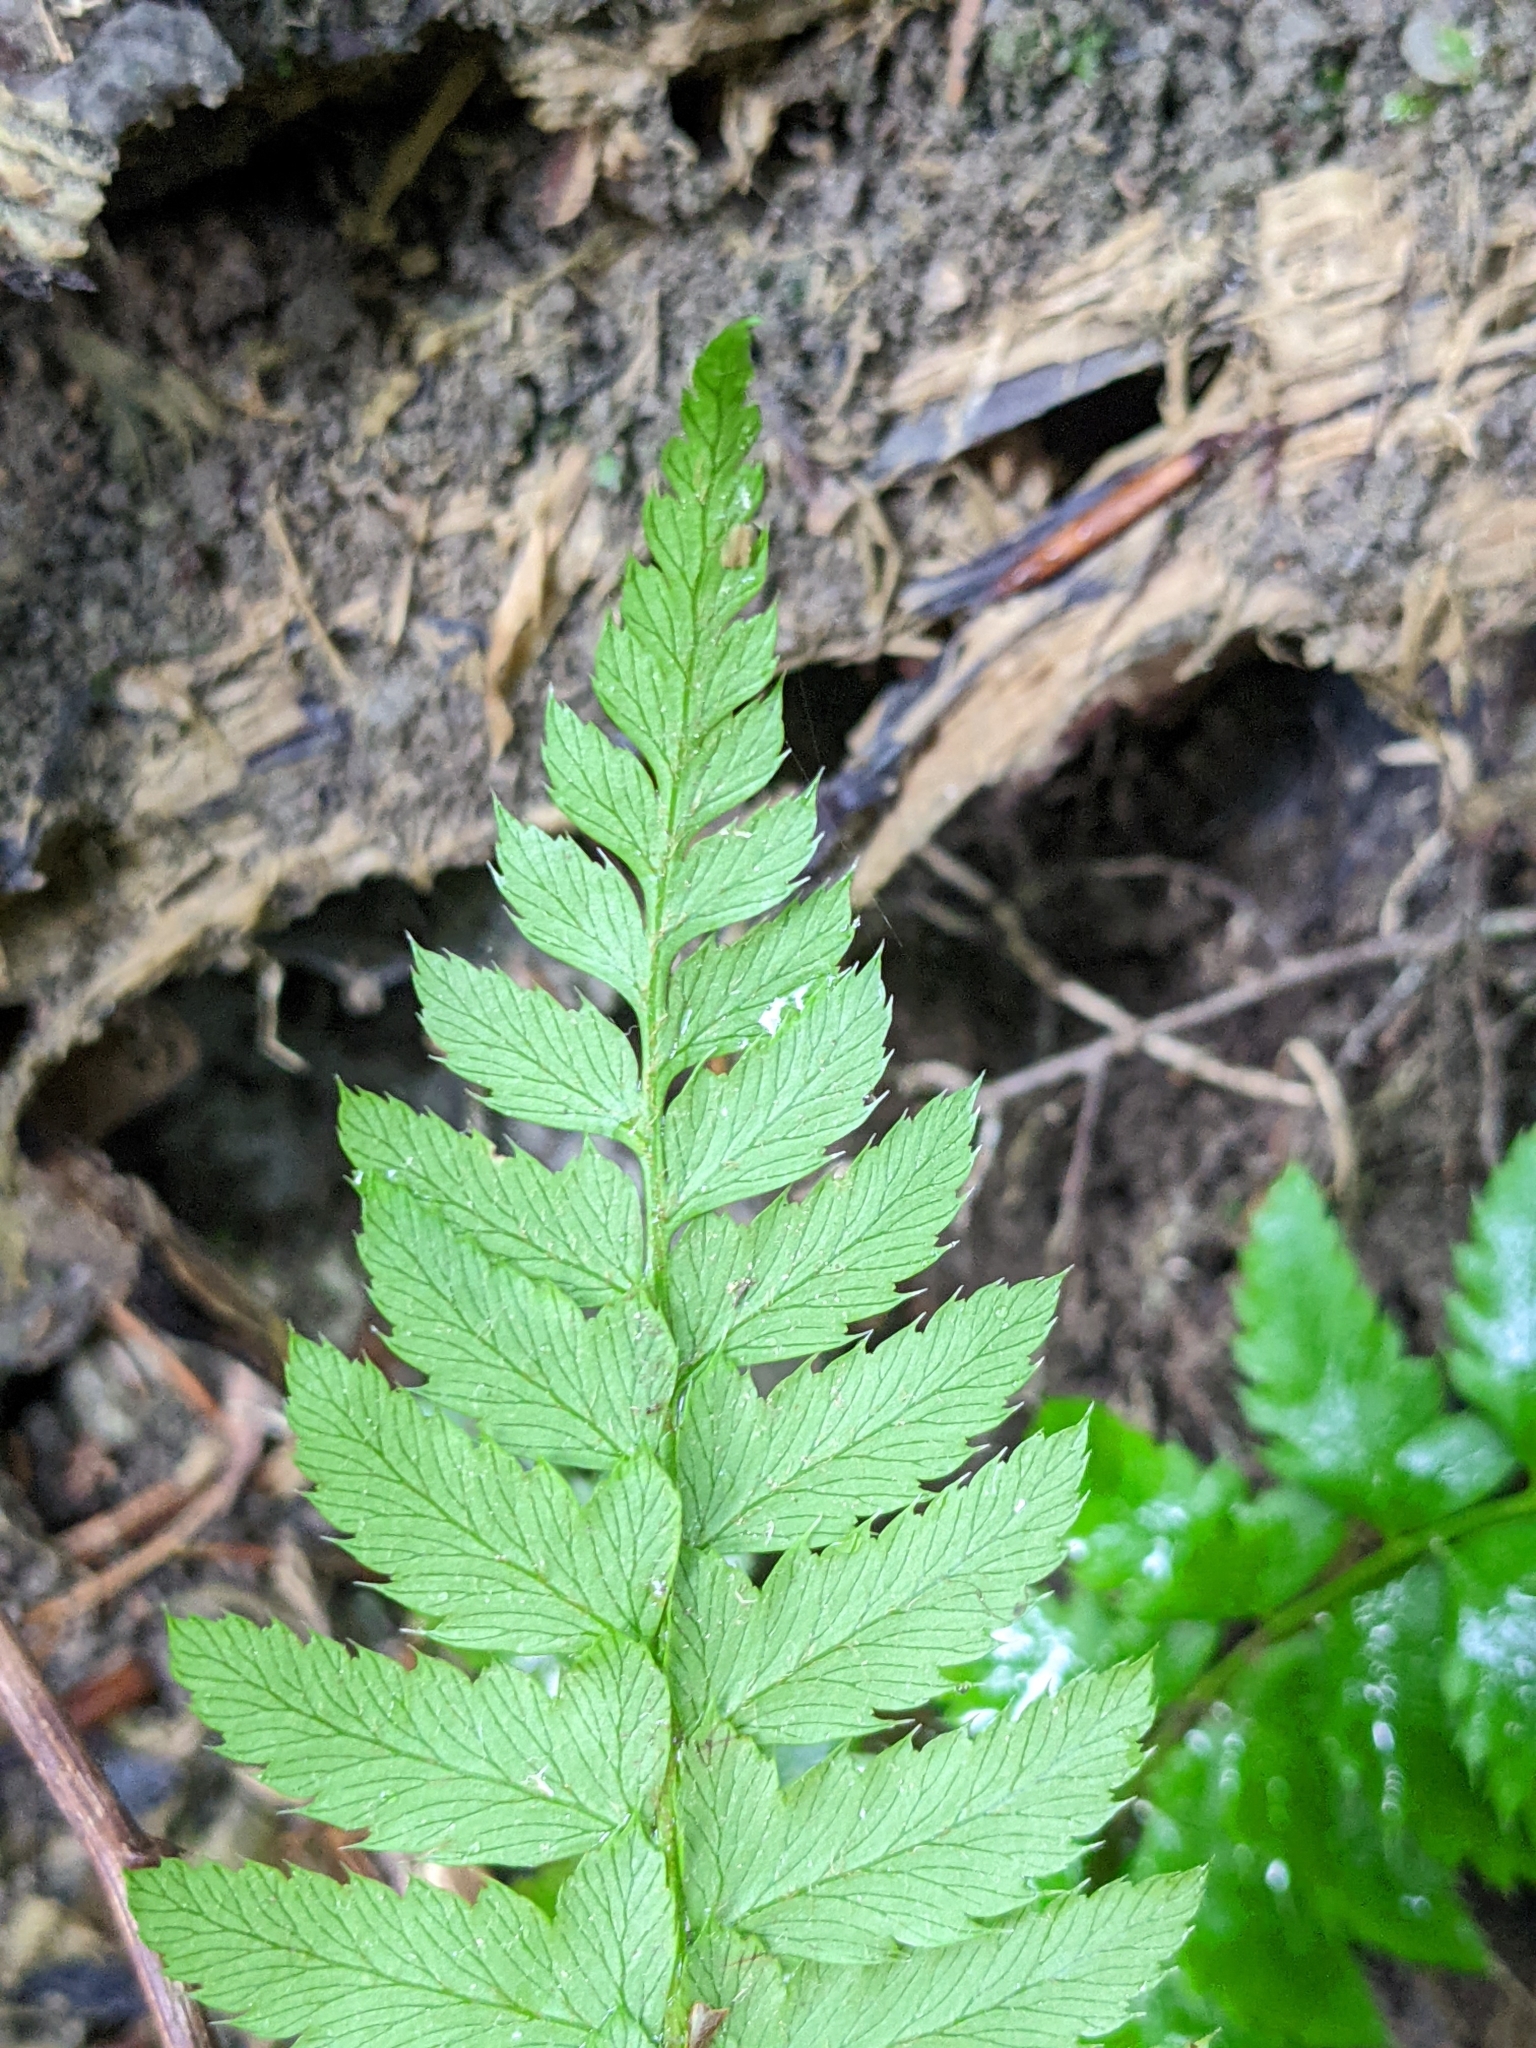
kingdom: Plantae
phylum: Tracheophyta
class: Polypodiopsida
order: Polypodiales
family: Dryopteridaceae
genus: Polystichum
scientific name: Polystichum aculeatum
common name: Hard shield-fern
